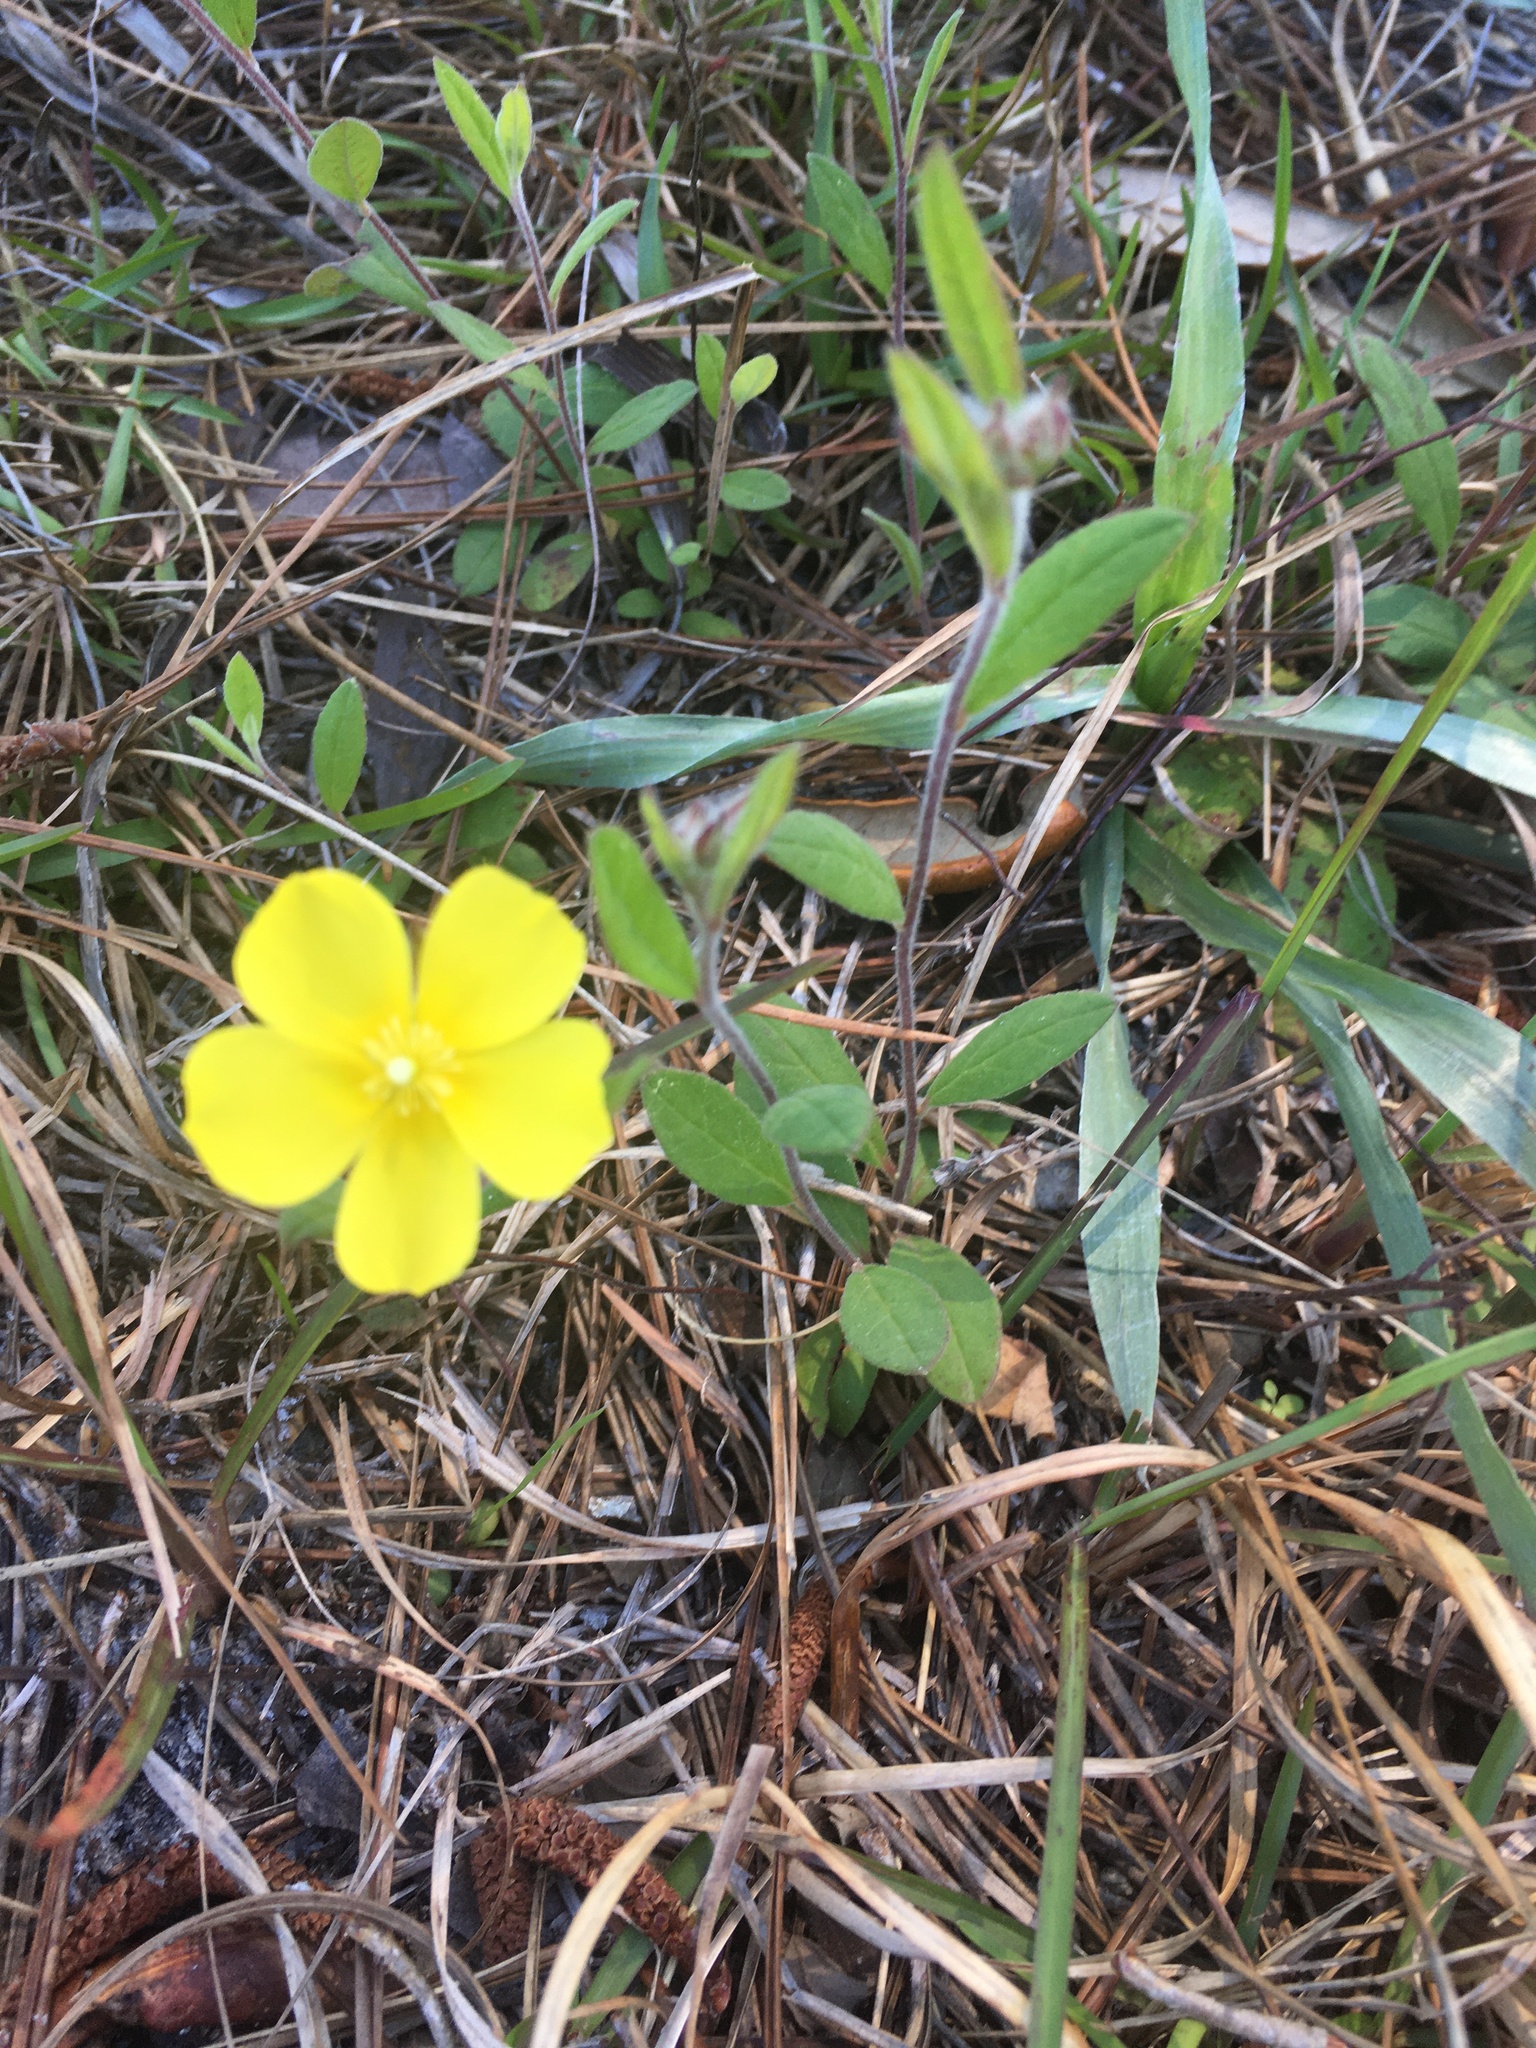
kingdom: Plantae
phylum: Tracheophyta
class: Magnoliopsida
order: Malvales
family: Cistaceae
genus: Crocanthemum
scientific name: Crocanthemum carolinianum
